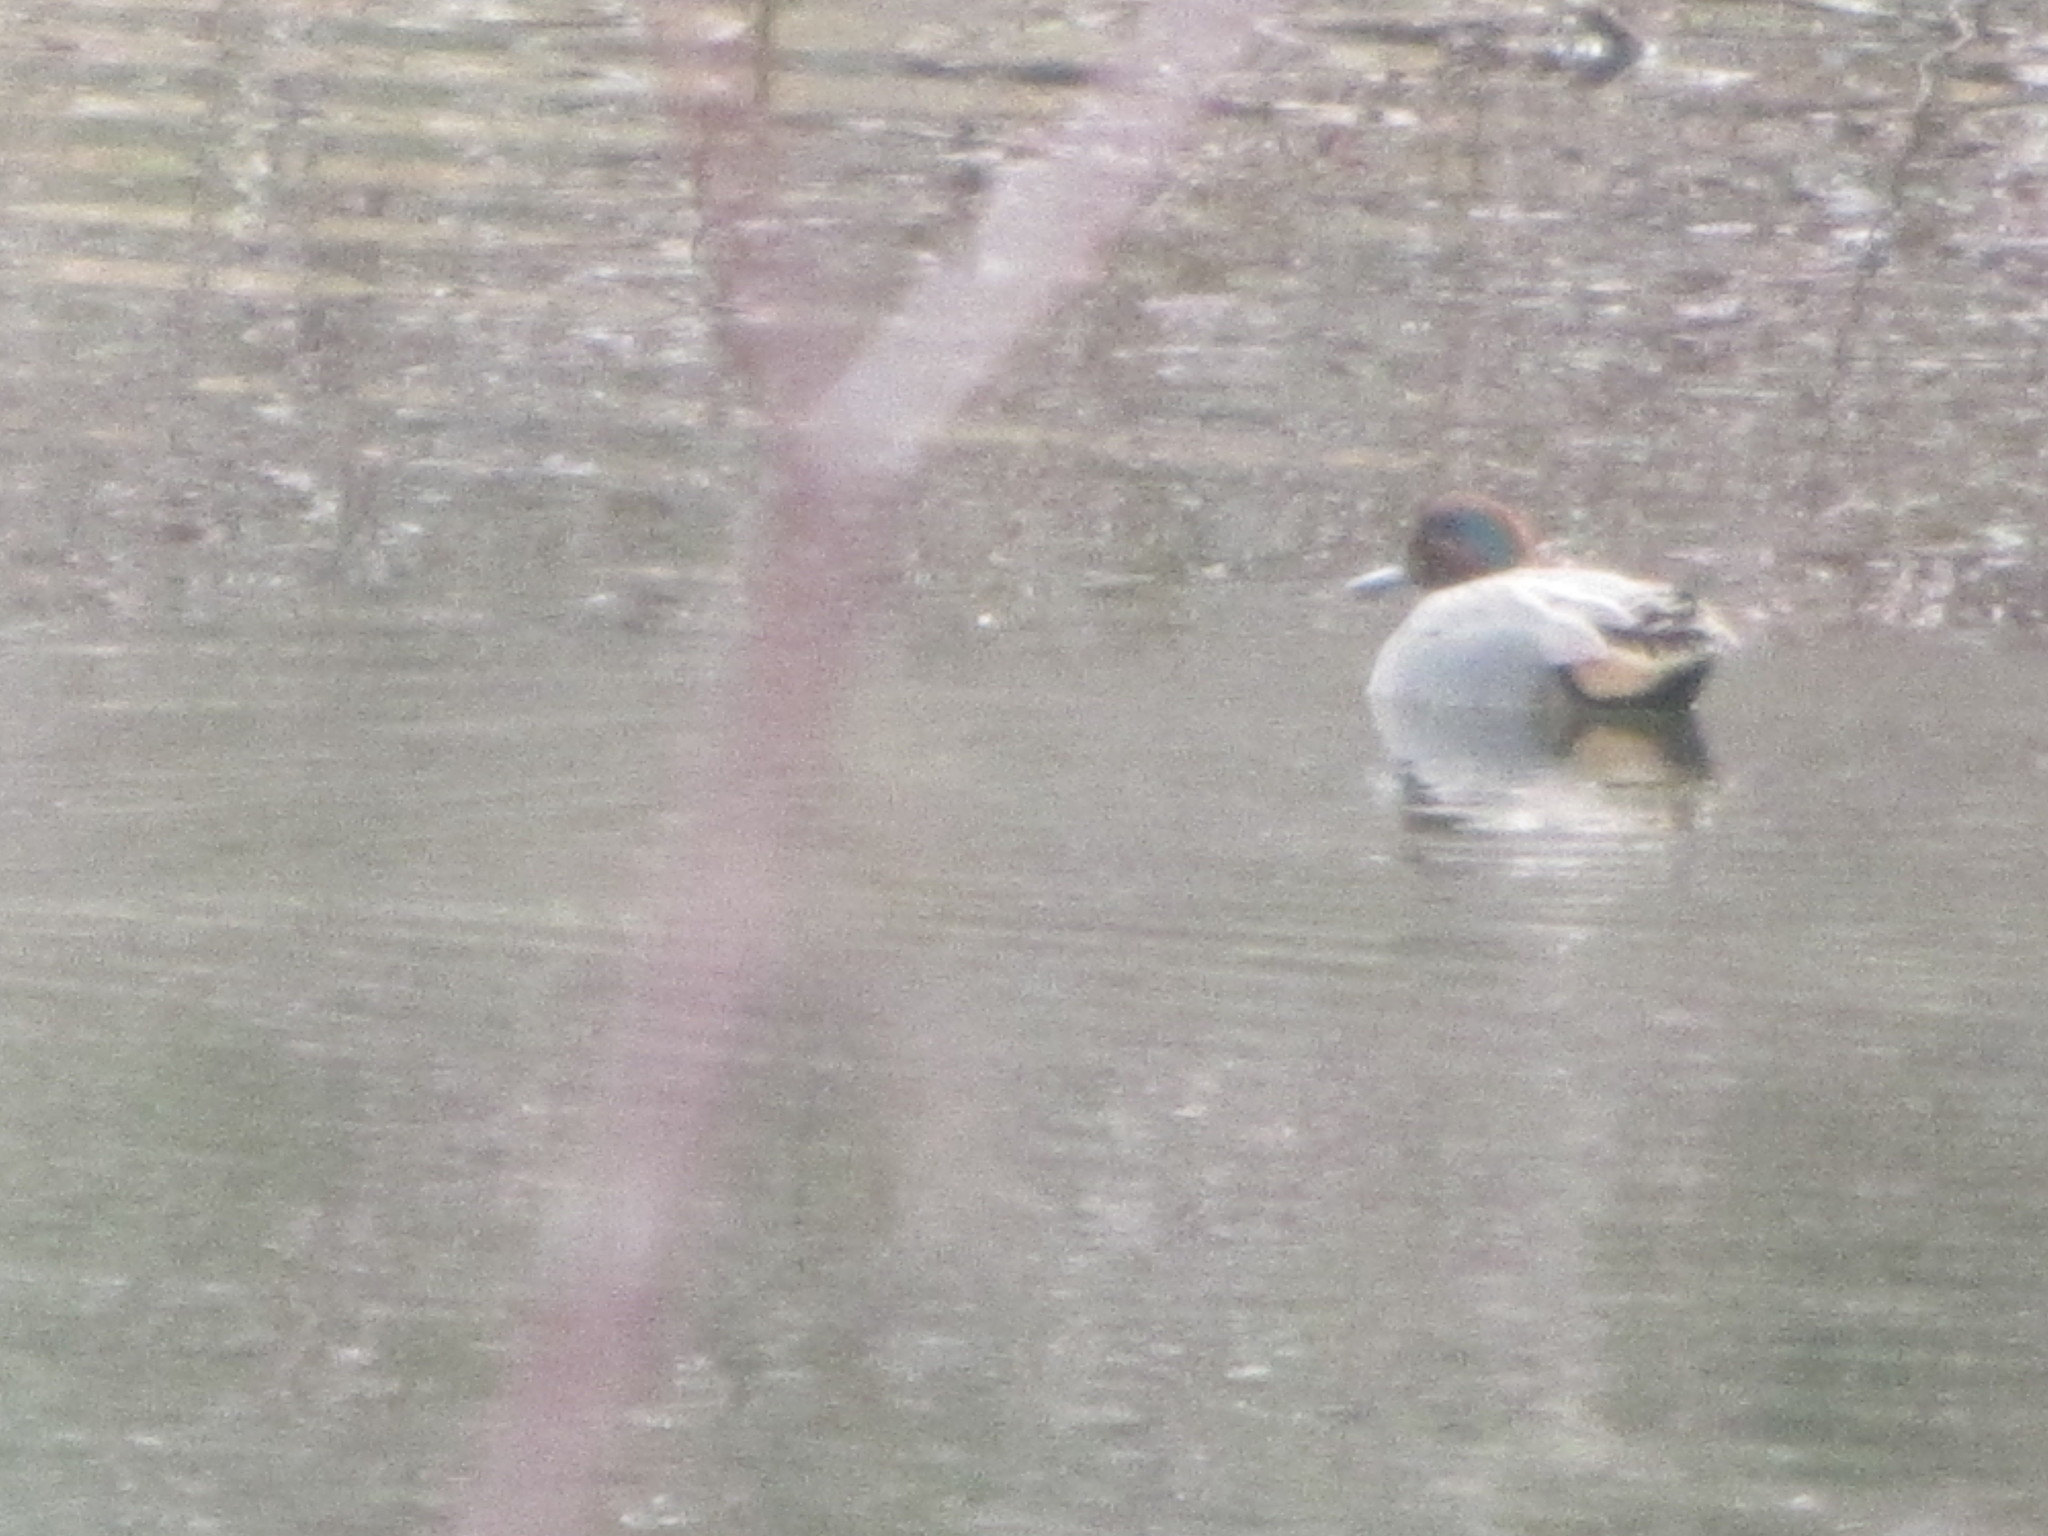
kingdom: Animalia
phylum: Chordata
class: Aves
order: Anseriformes
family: Anatidae
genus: Anas
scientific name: Anas crecca
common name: Eurasian teal
